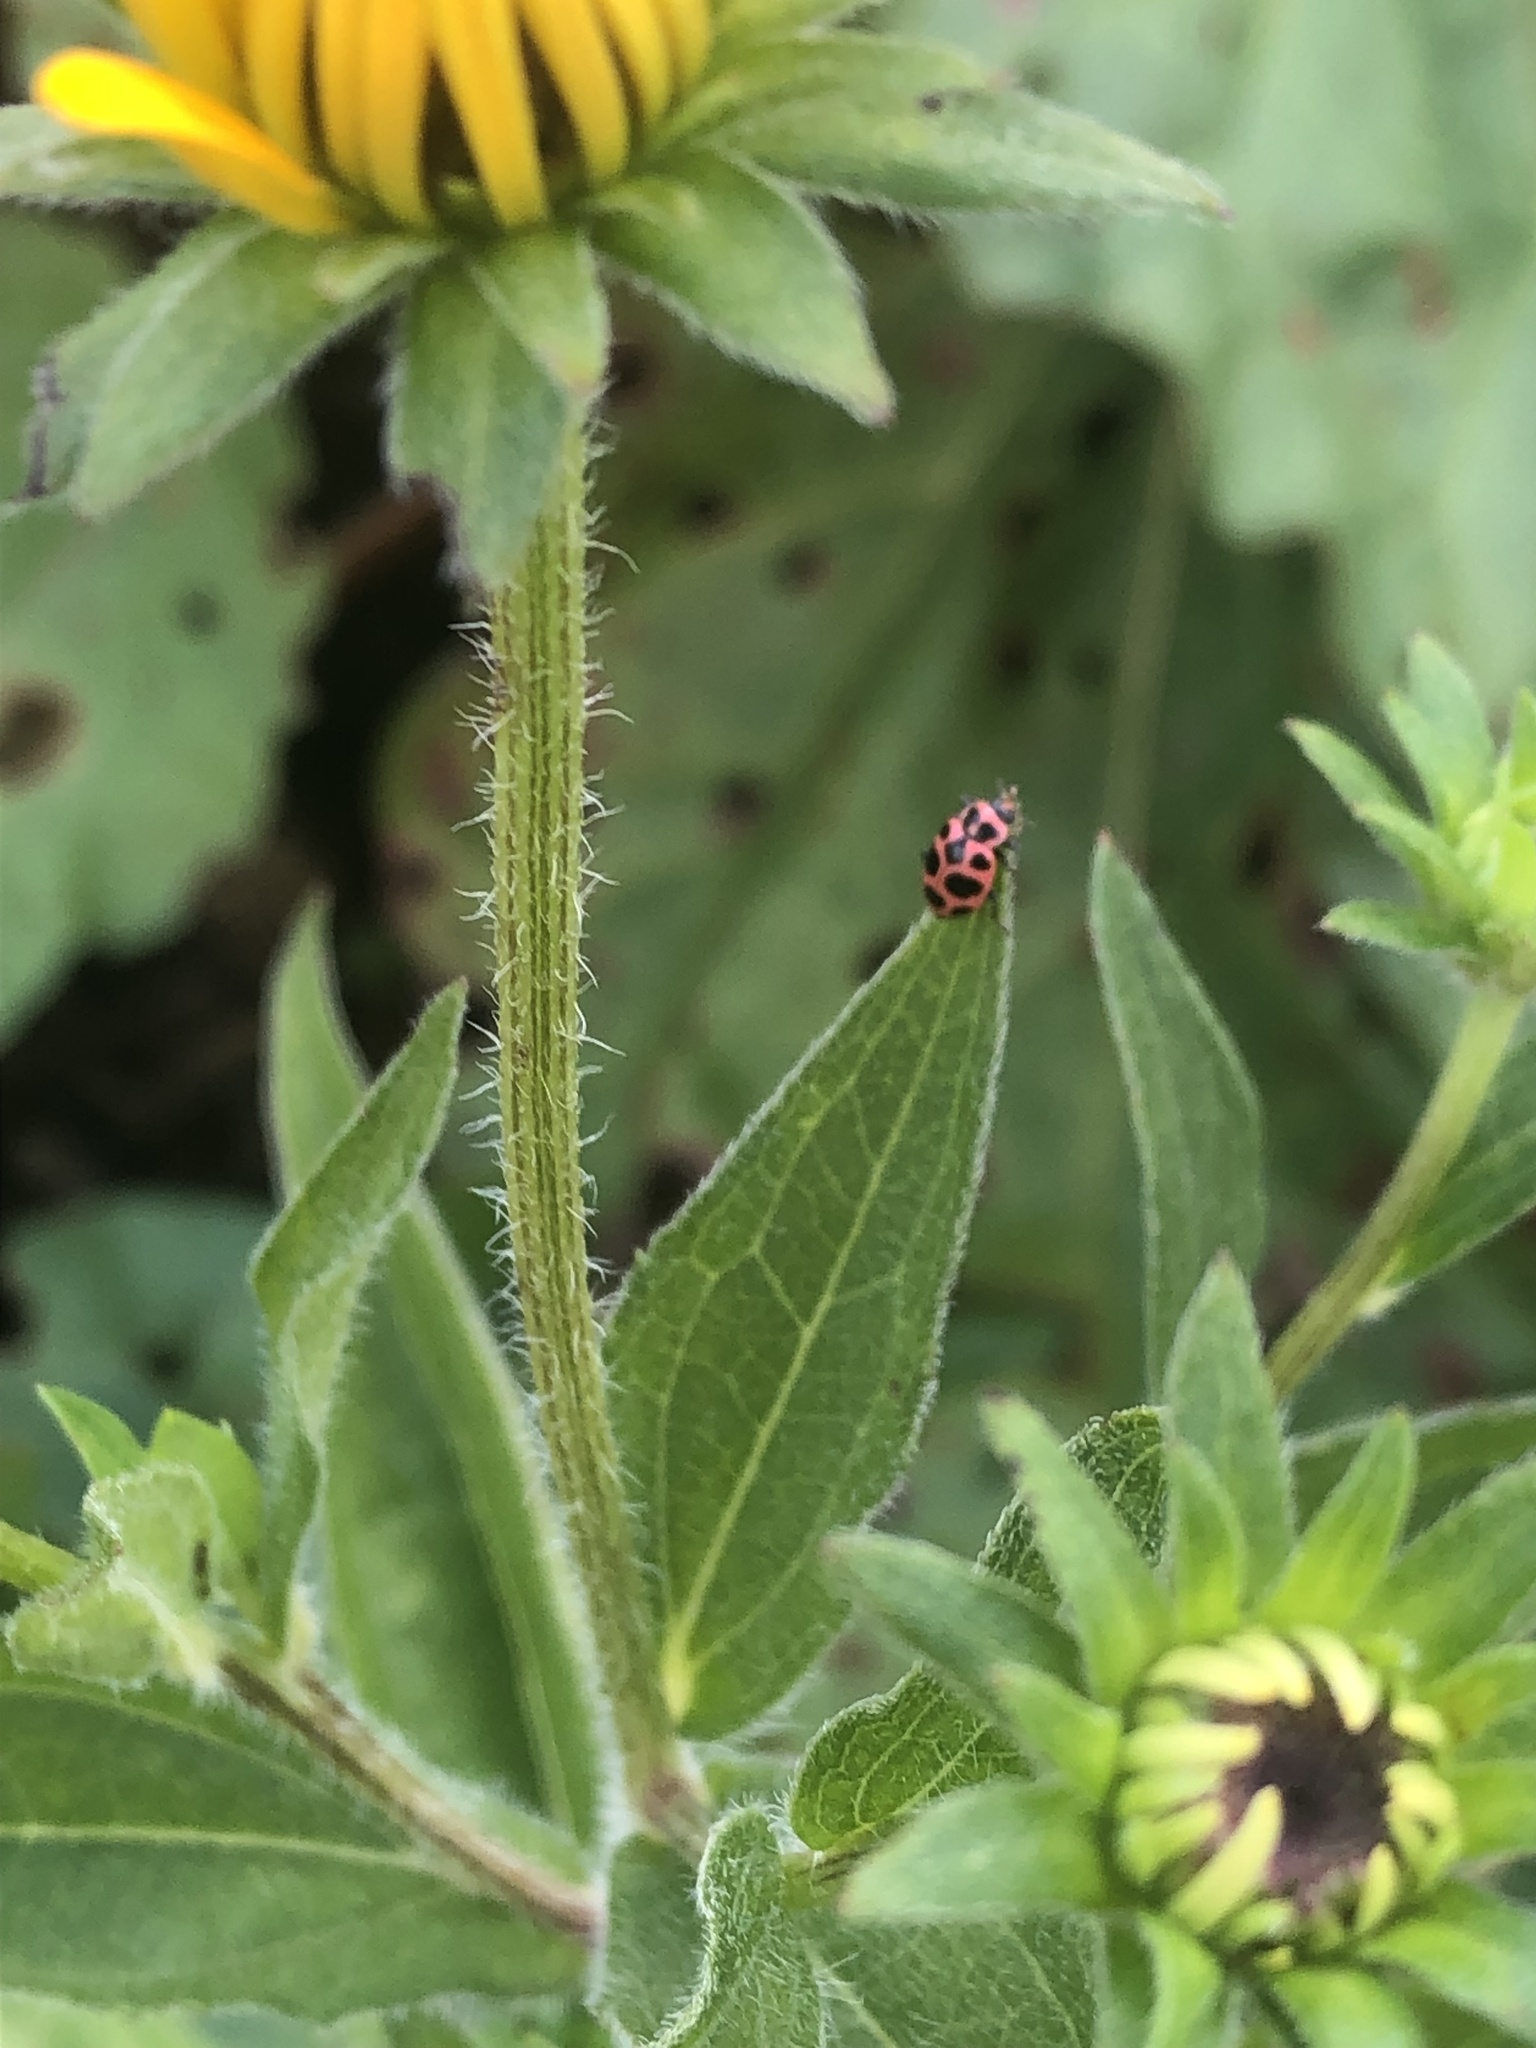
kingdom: Animalia
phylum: Arthropoda
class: Insecta
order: Coleoptera
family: Coccinellidae
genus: Coleomegilla
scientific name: Coleomegilla maculata
